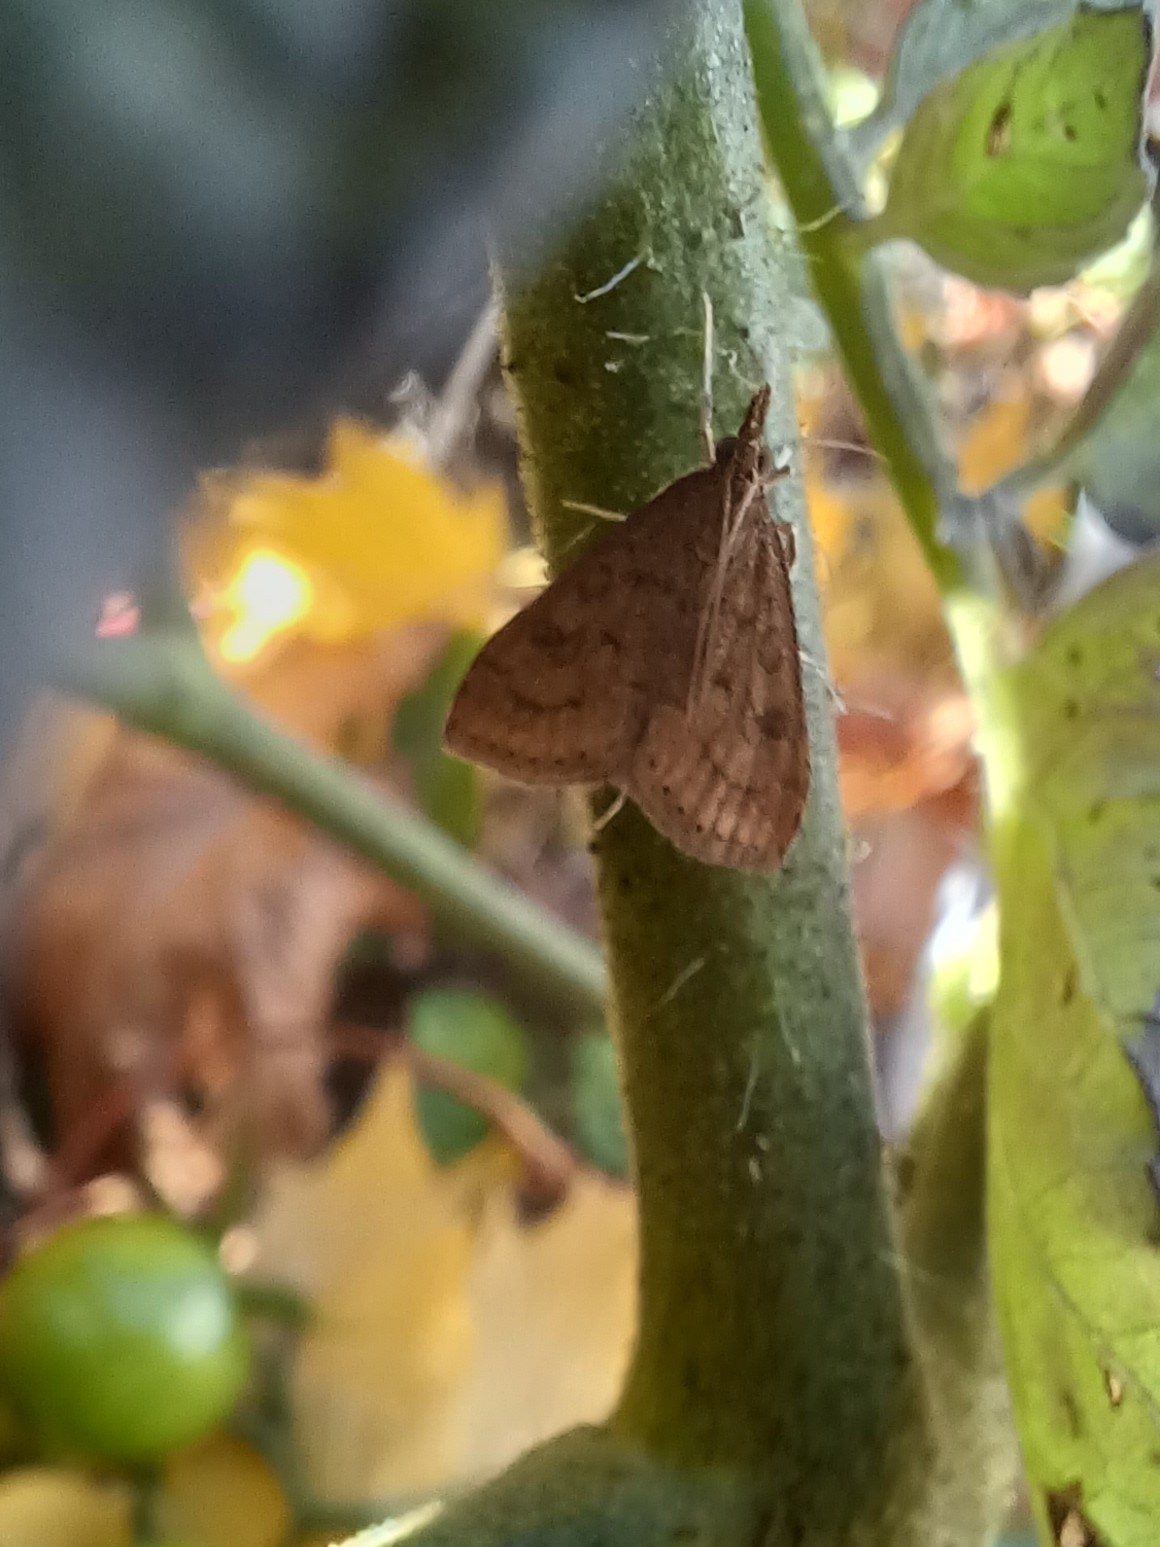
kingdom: Animalia
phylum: Arthropoda
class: Insecta
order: Lepidoptera
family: Crambidae
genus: Udea
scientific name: Udea rubigalis
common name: Celery leaftier moth
